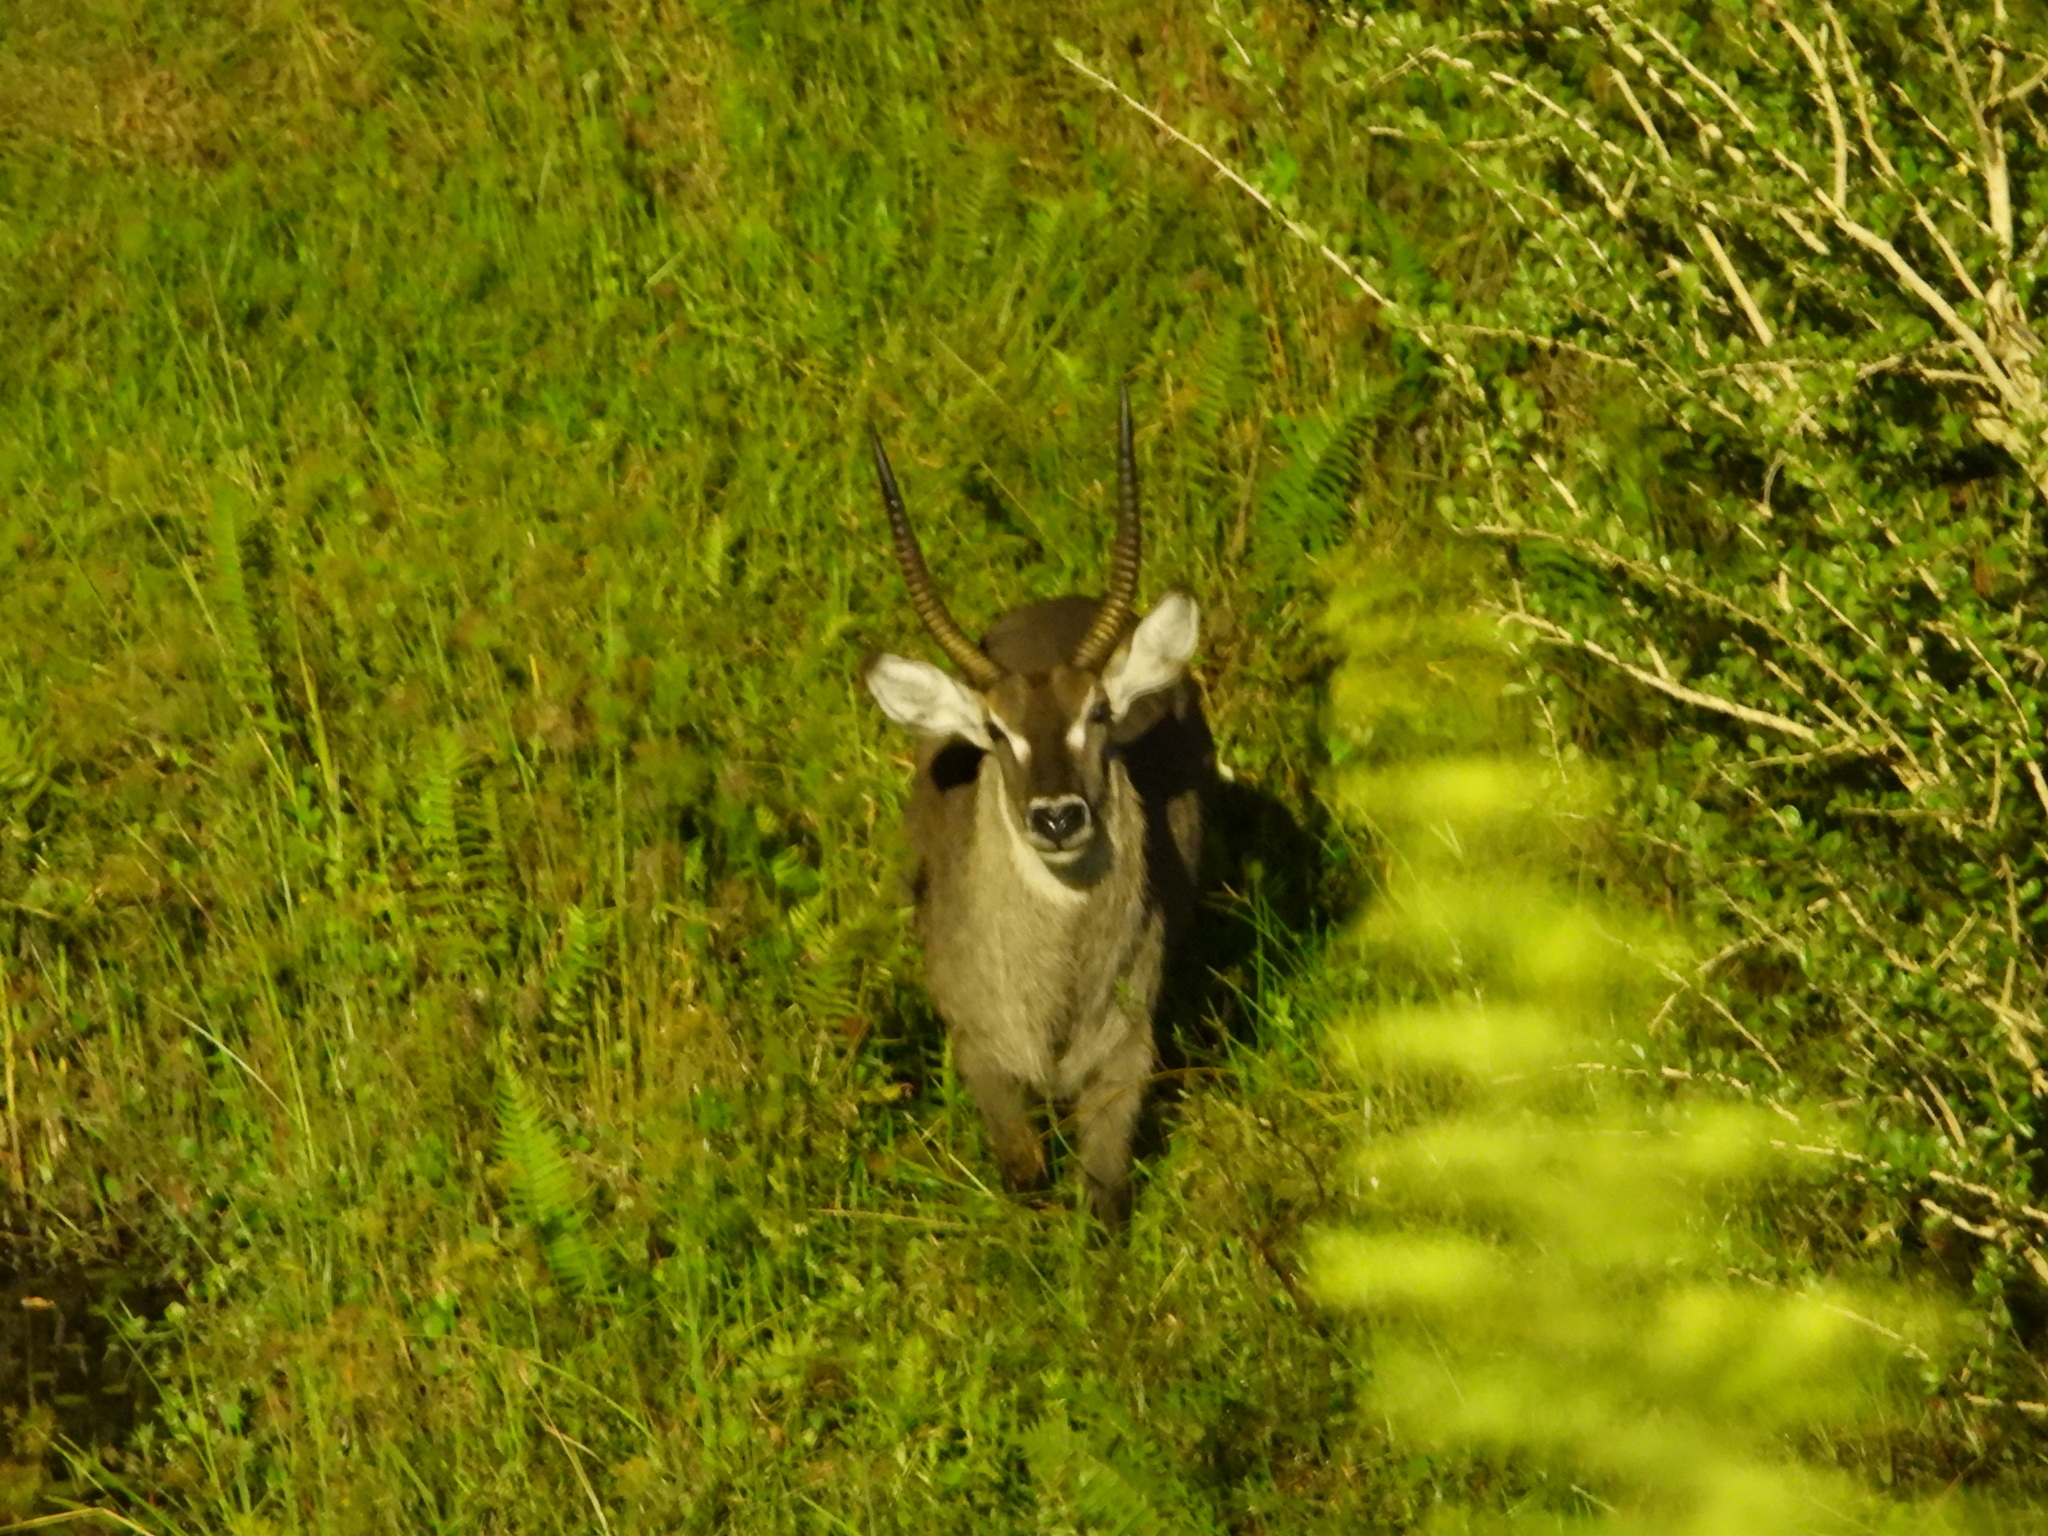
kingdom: Animalia
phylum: Chordata
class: Mammalia
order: Artiodactyla
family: Bovidae
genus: Kobus
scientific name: Kobus ellipsiprymnus
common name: Waterbuck
